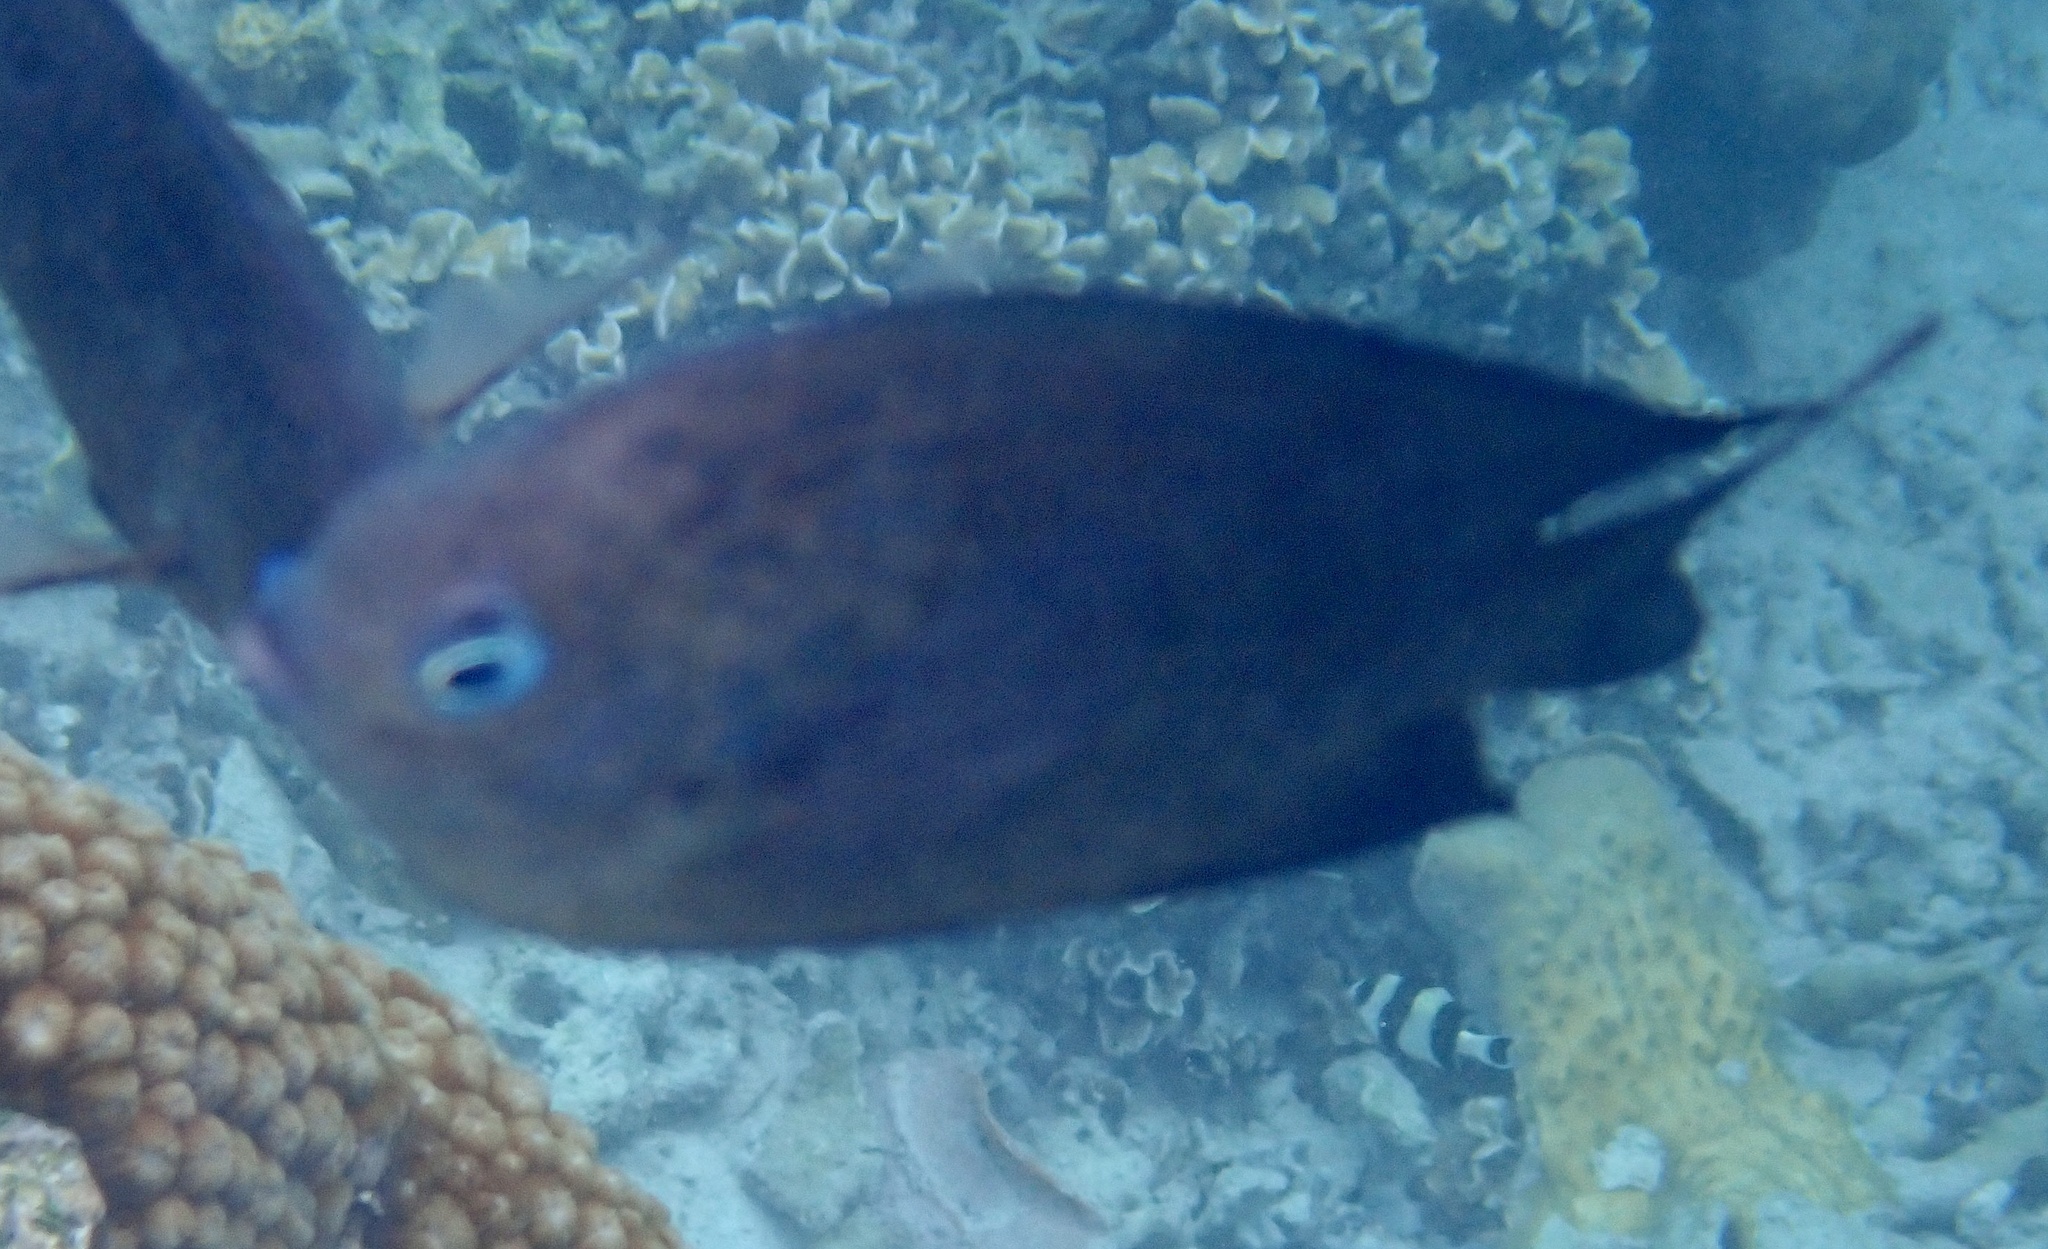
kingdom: Animalia
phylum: Chordata
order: Perciformes
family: Pomacentridae
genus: Acanthochromis
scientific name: Acanthochromis polyacanthus
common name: Spiny chromis
